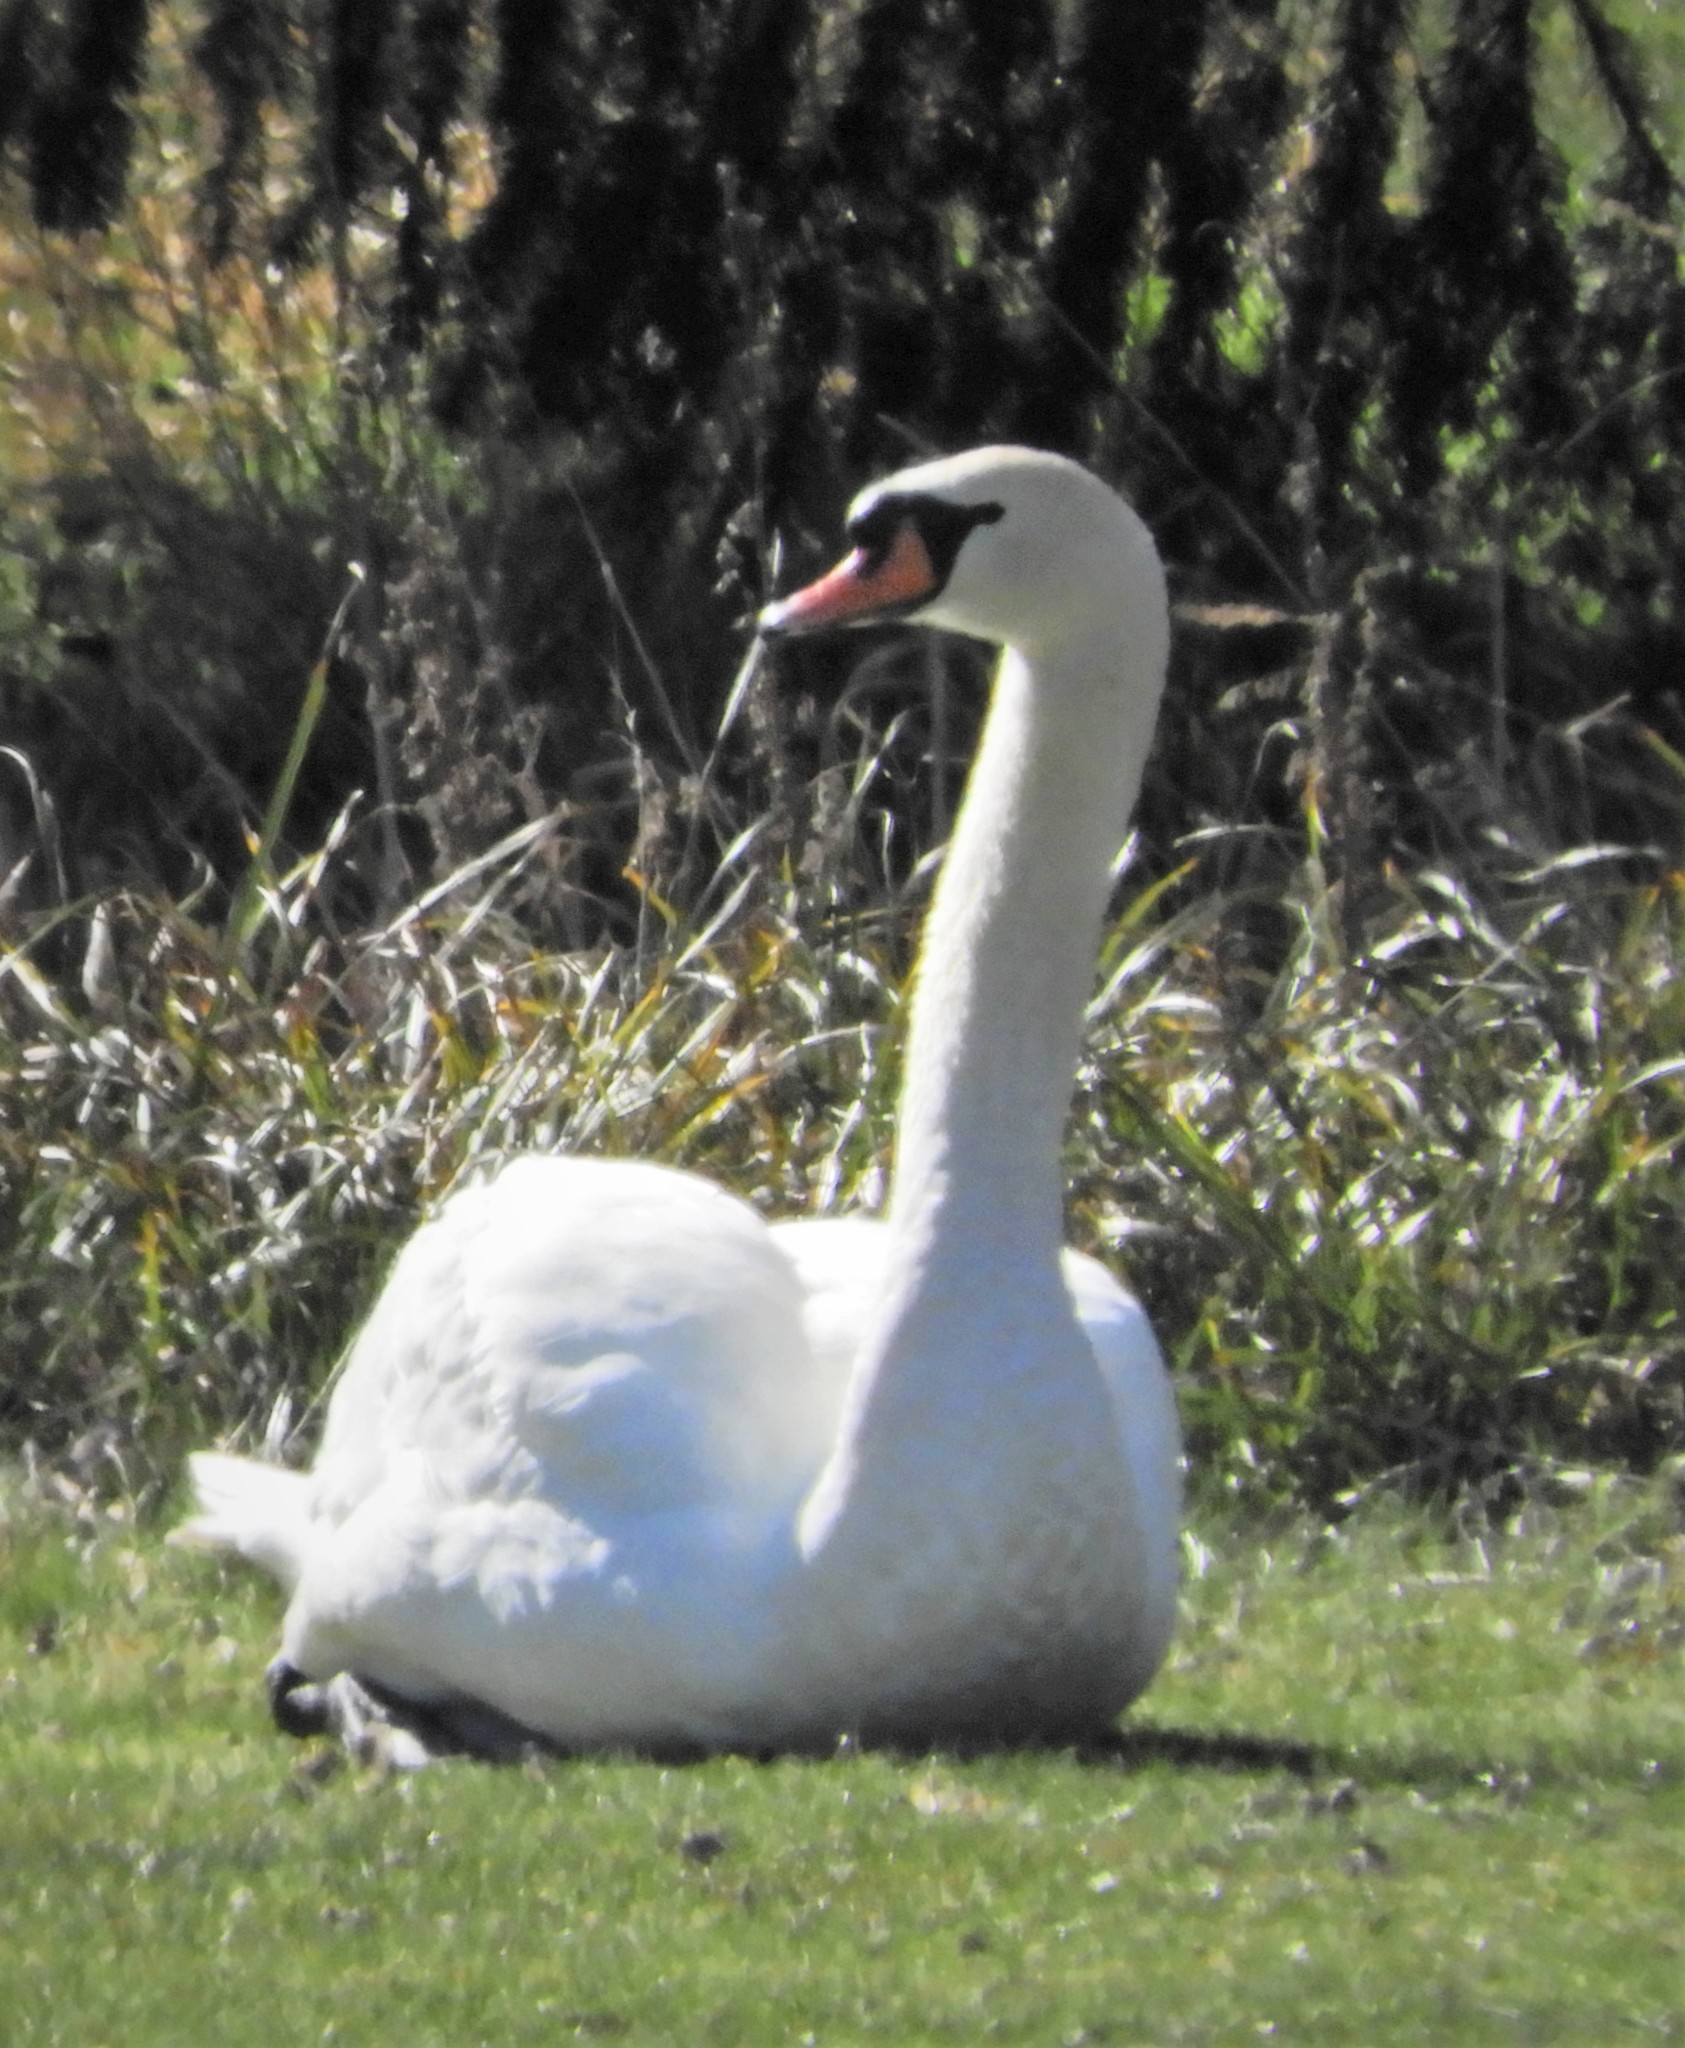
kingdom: Animalia
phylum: Chordata
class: Aves
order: Anseriformes
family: Anatidae
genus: Cygnus
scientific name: Cygnus olor
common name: Mute swan
